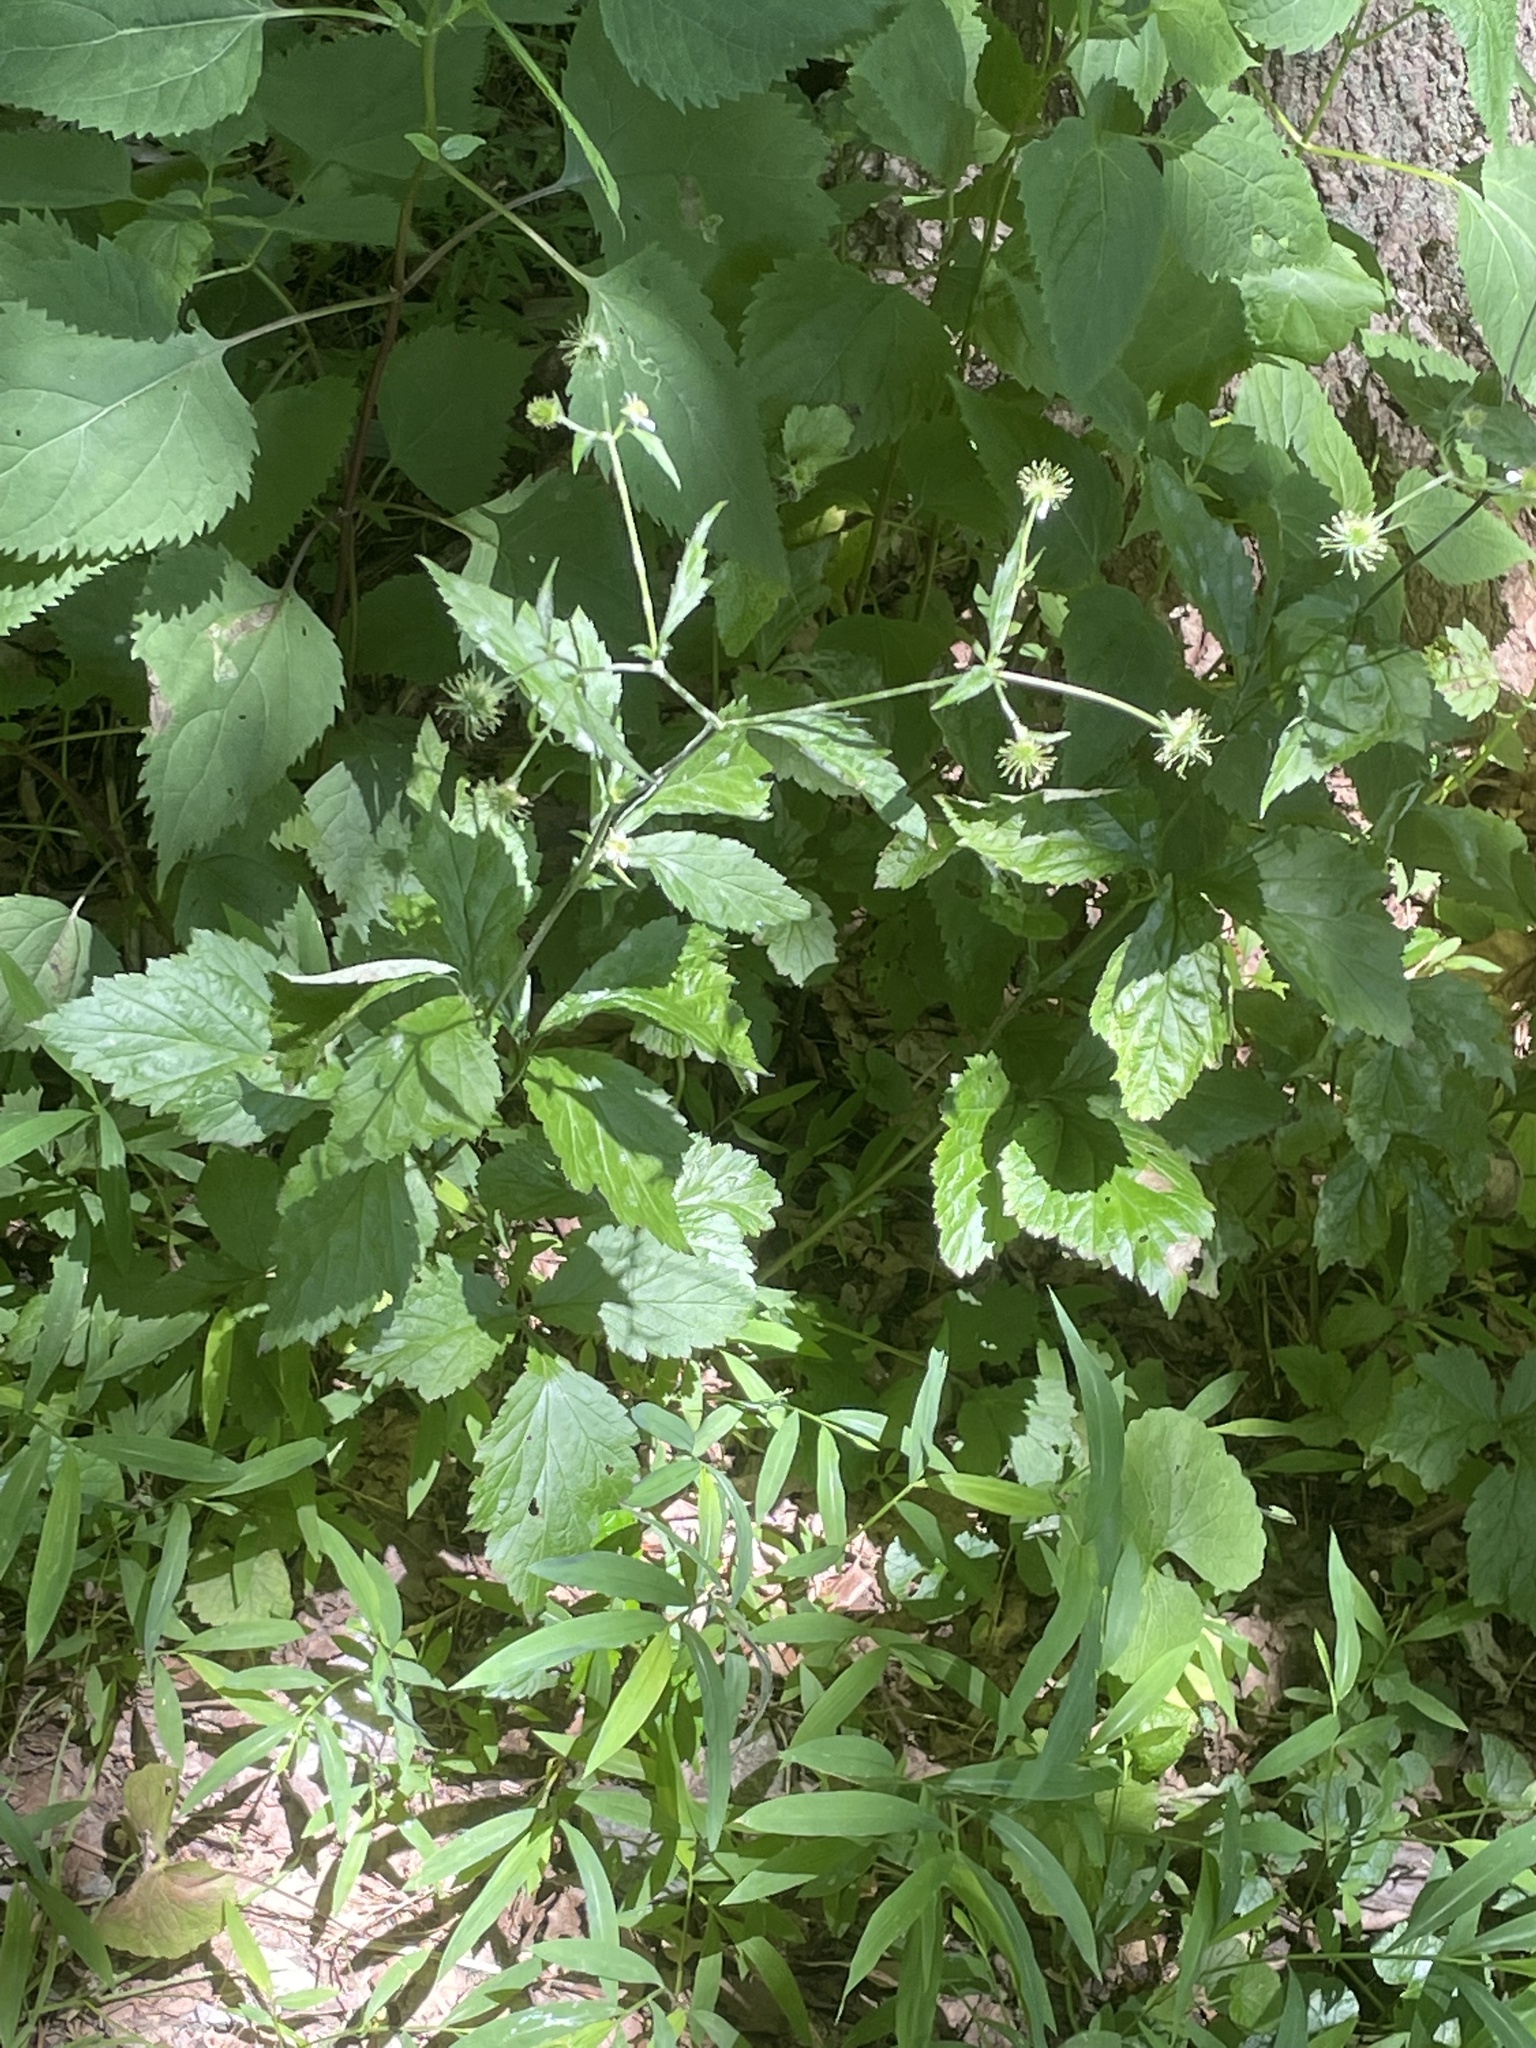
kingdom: Plantae
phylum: Tracheophyta
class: Magnoliopsida
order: Rosales
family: Rosaceae
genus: Geum
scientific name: Geum canadense
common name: White avens
